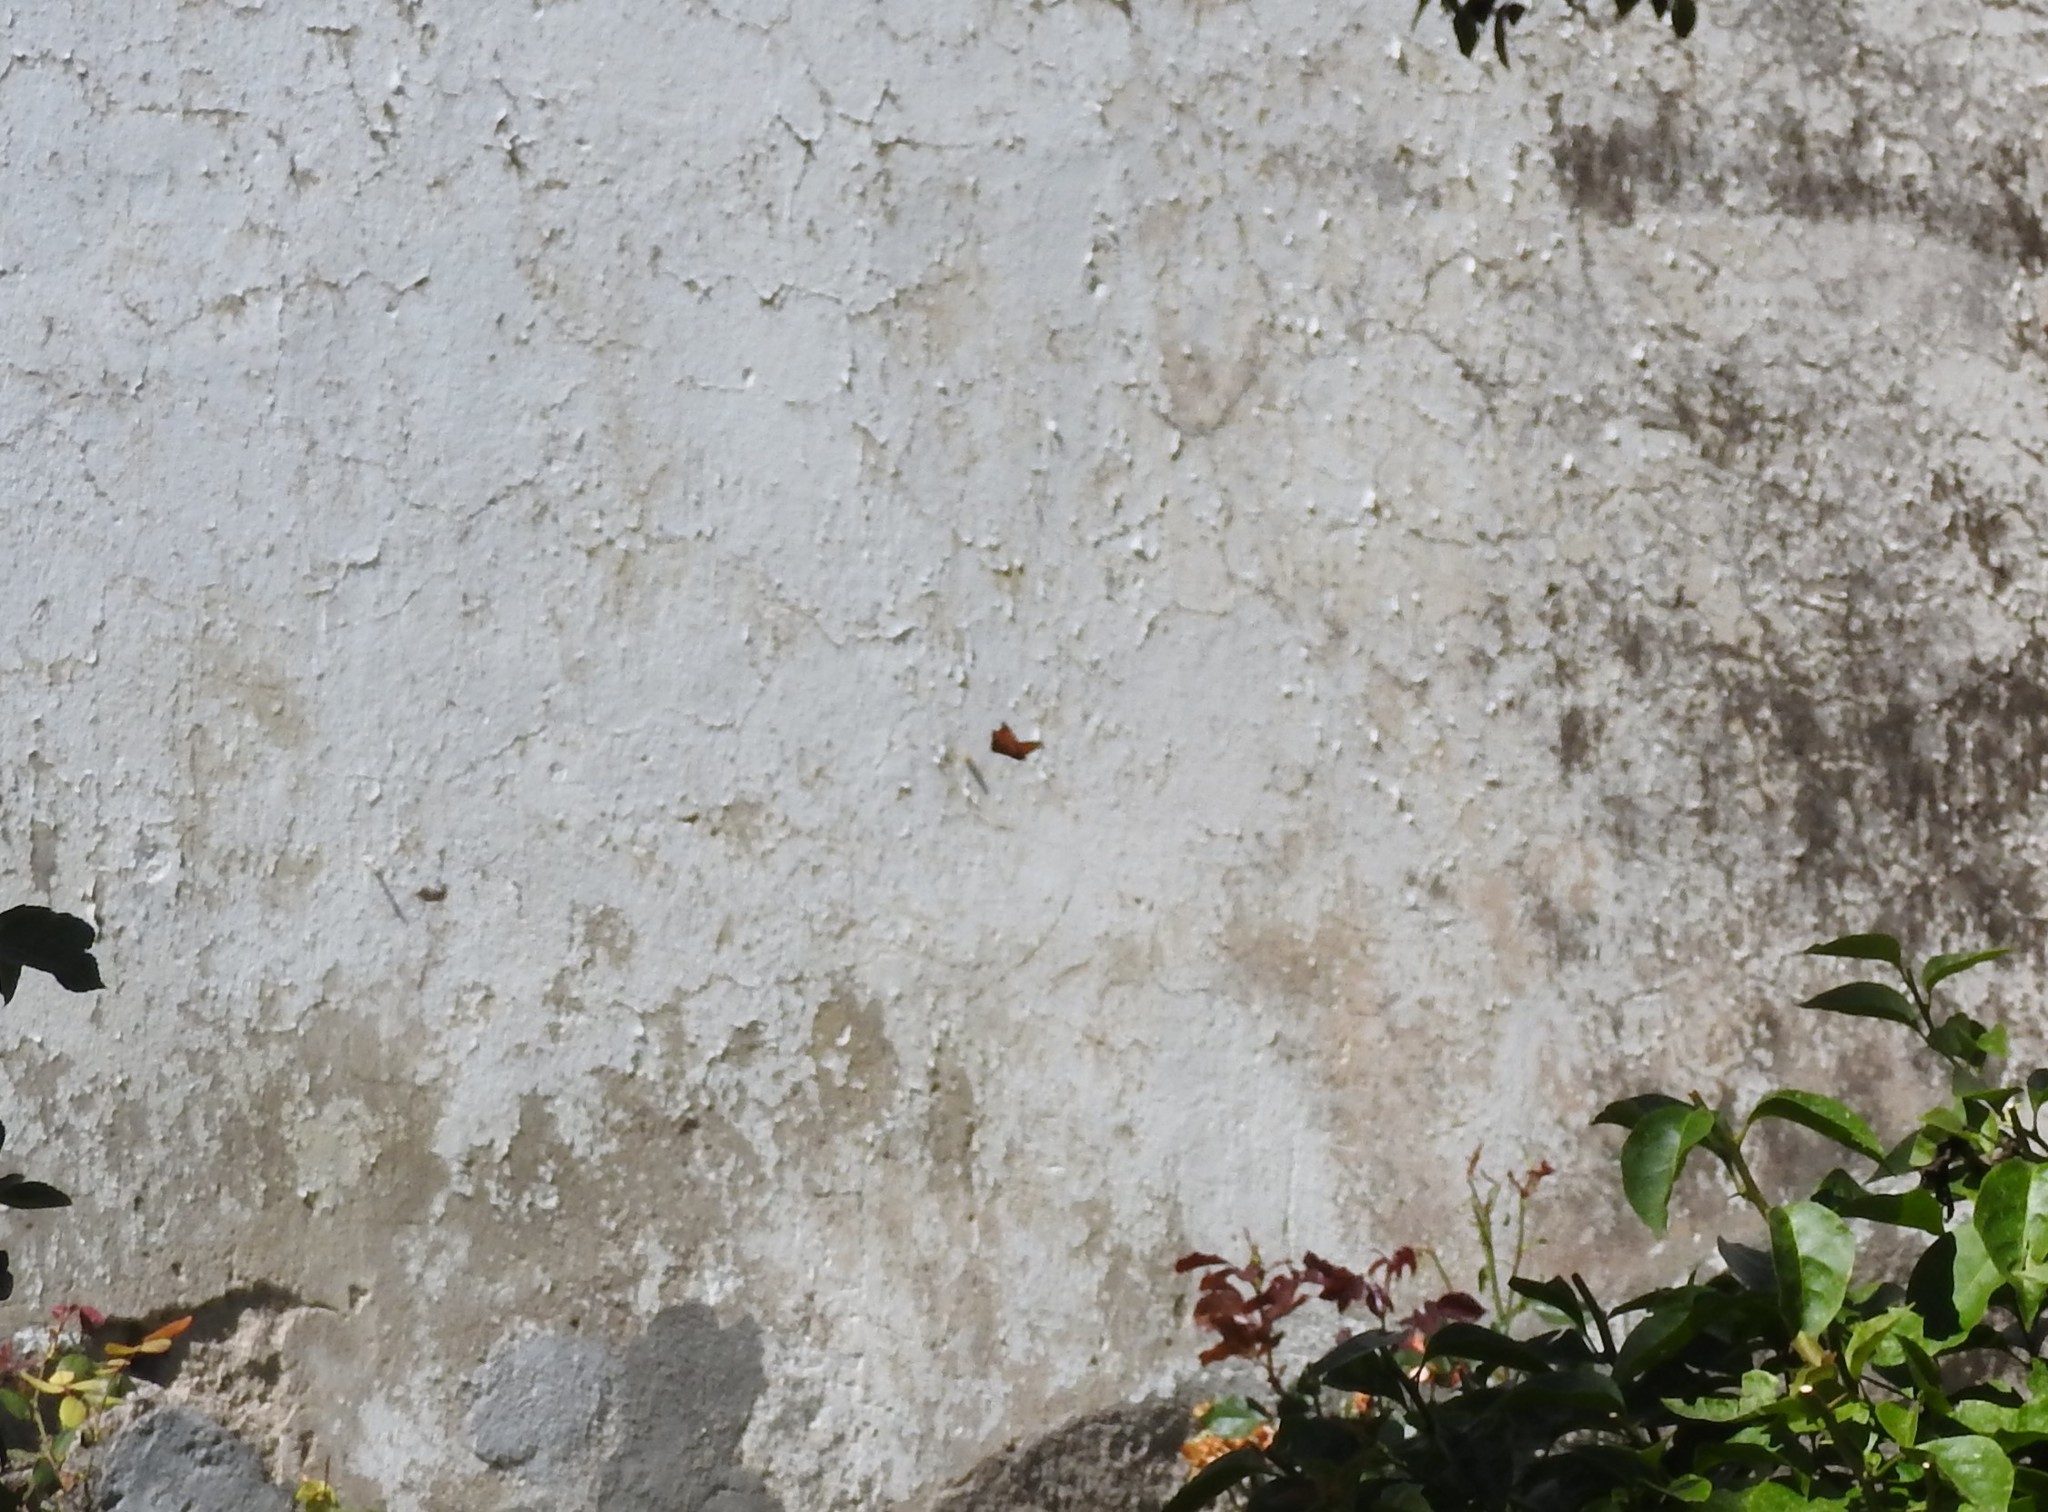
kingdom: Animalia
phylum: Arthropoda
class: Insecta
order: Lepidoptera
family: Nymphalidae
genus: Danaus
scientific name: Danaus plexippus
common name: Monarch
